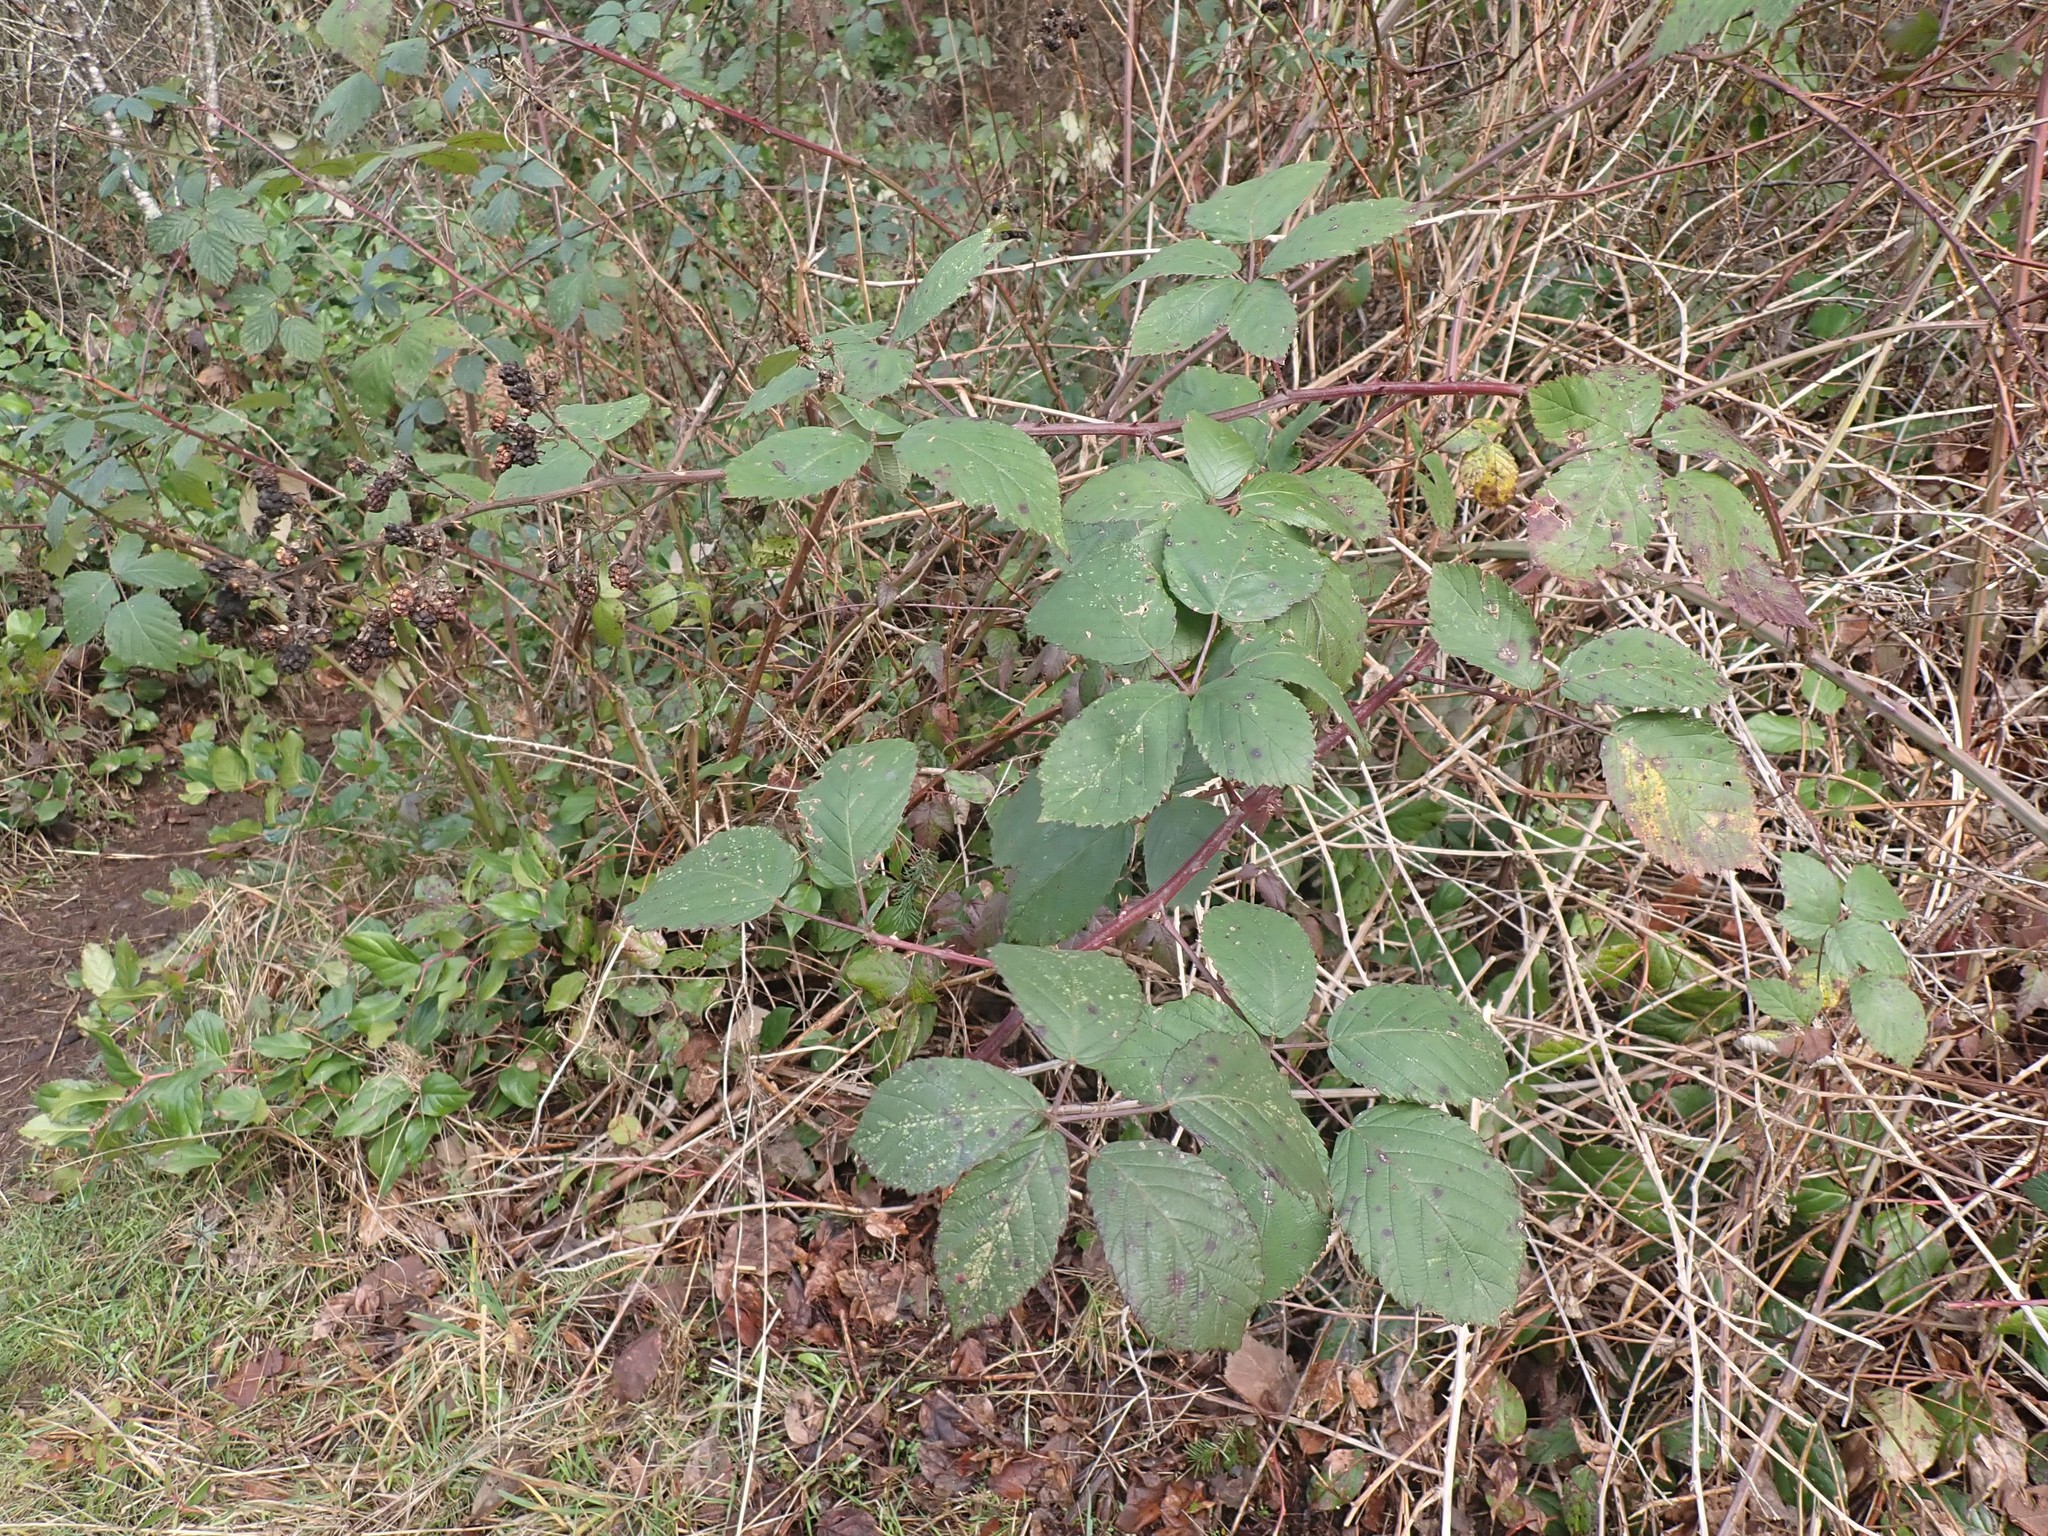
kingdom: Plantae
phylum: Tracheophyta
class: Magnoliopsida
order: Rosales
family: Rosaceae
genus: Rubus
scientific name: Rubus bifrons
